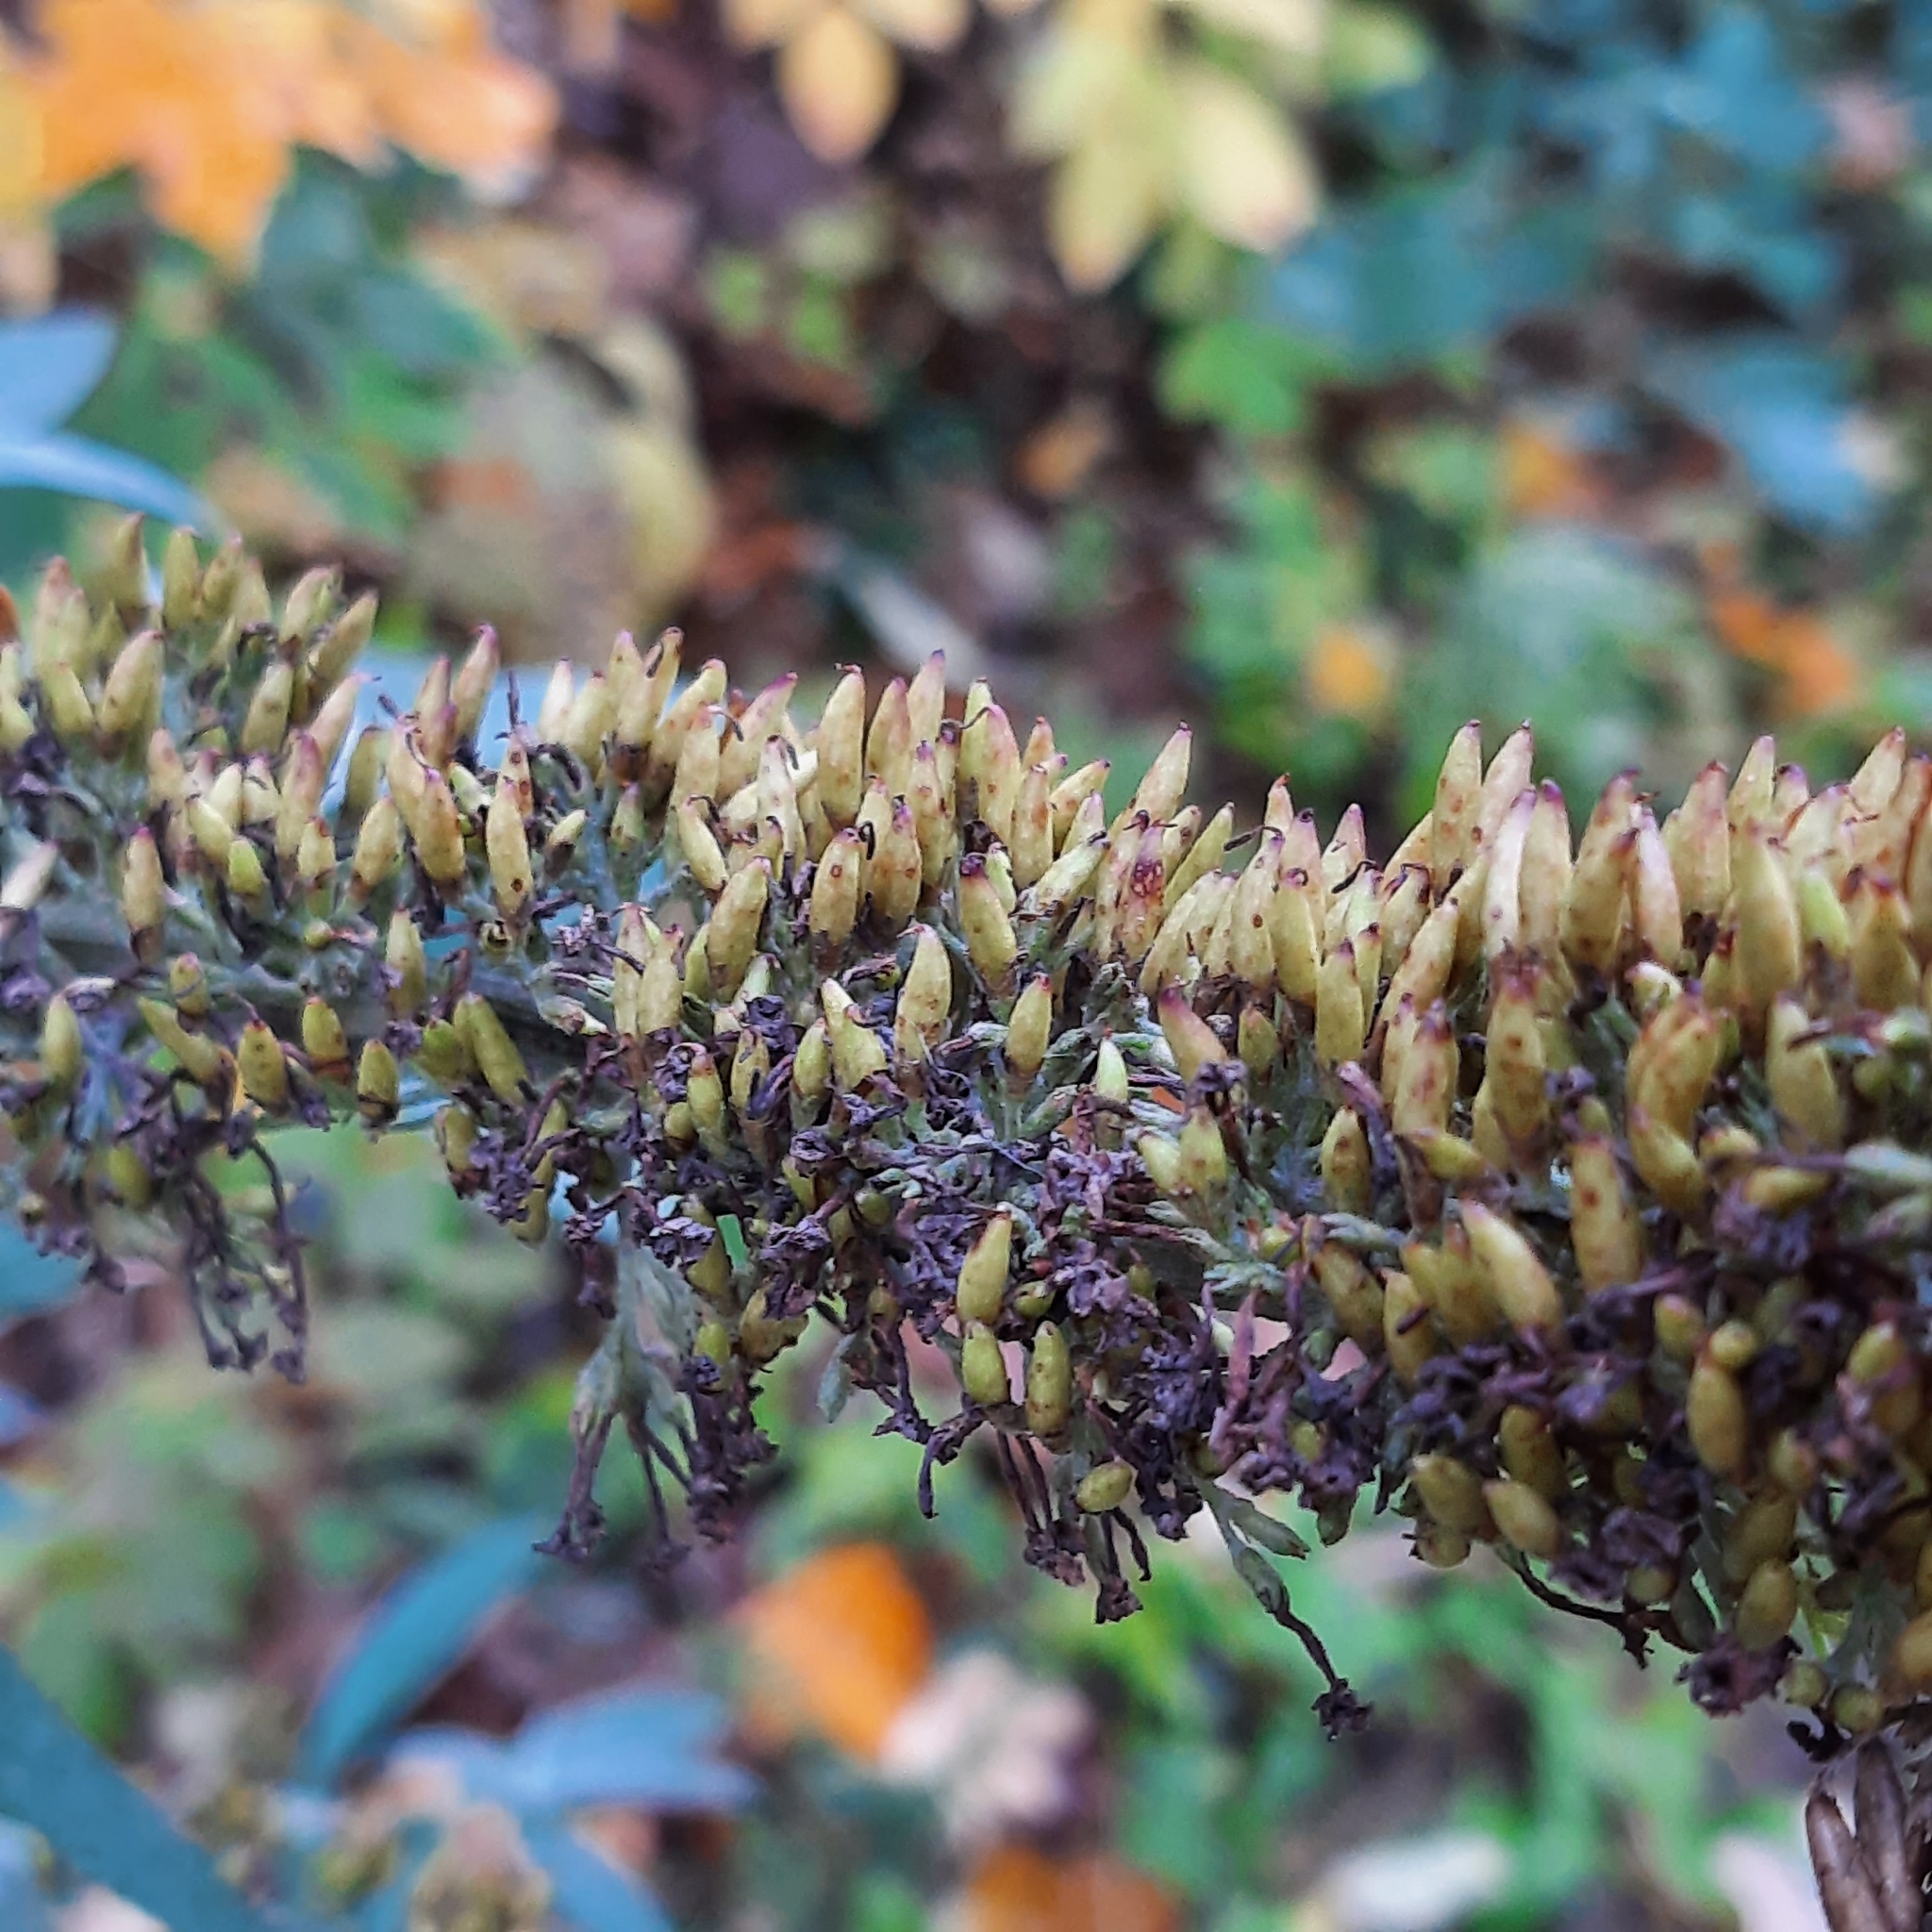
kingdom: Plantae
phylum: Tracheophyta
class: Magnoliopsida
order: Lamiales
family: Scrophulariaceae
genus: Buddleja
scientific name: Buddleja davidii
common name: Butterfly-bush
